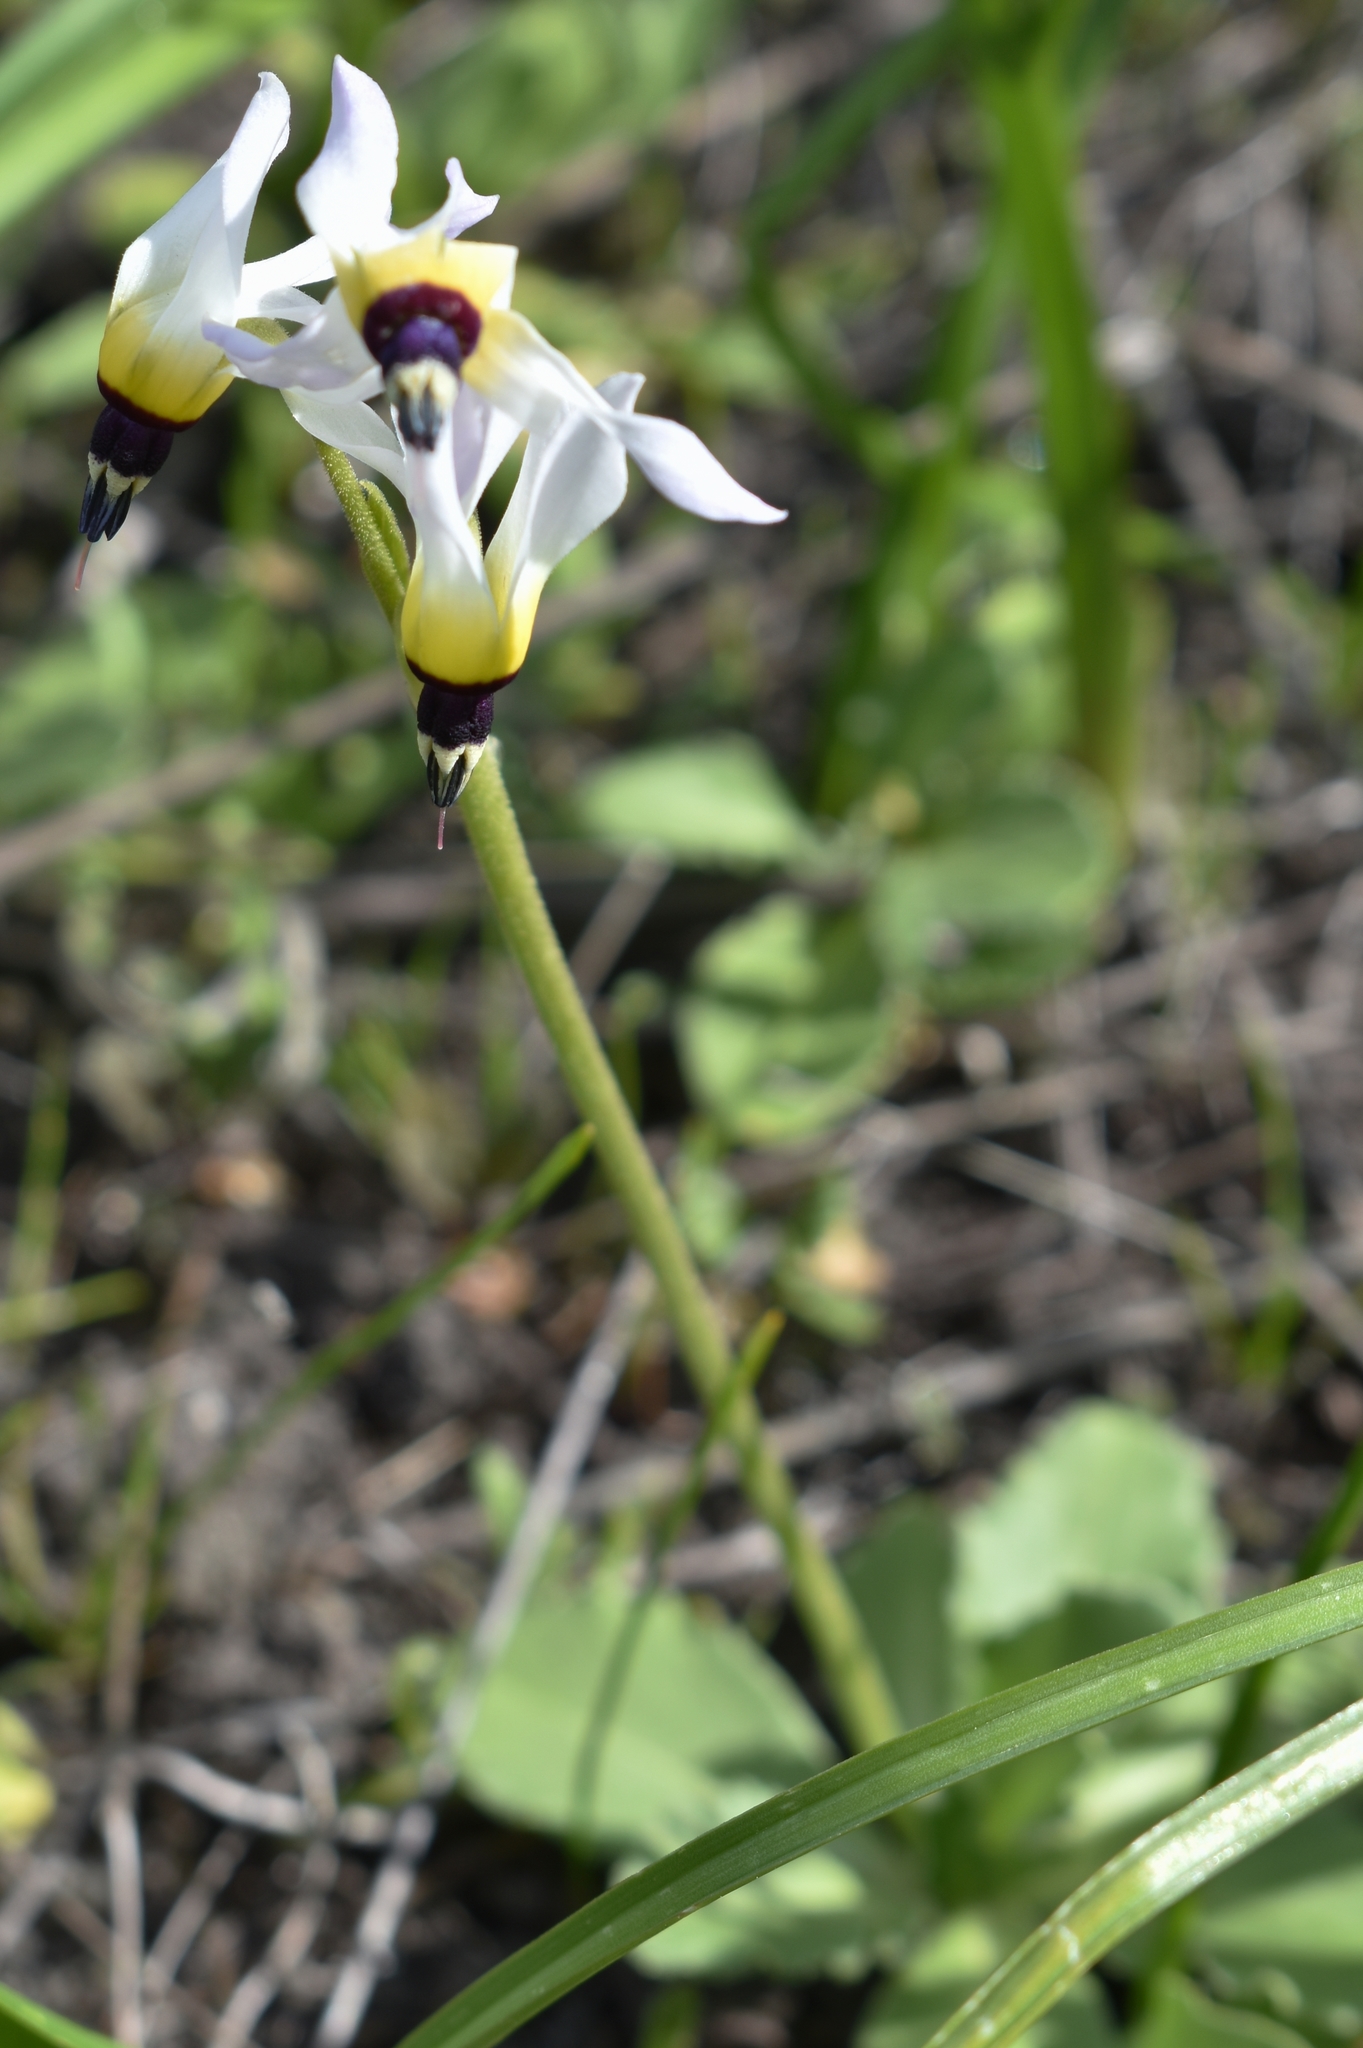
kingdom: Plantae
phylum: Tracheophyta
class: Magnoliopsida
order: Ericales
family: Primulaceae
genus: Dodecatheon
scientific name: Dodecatheon clevelandii
